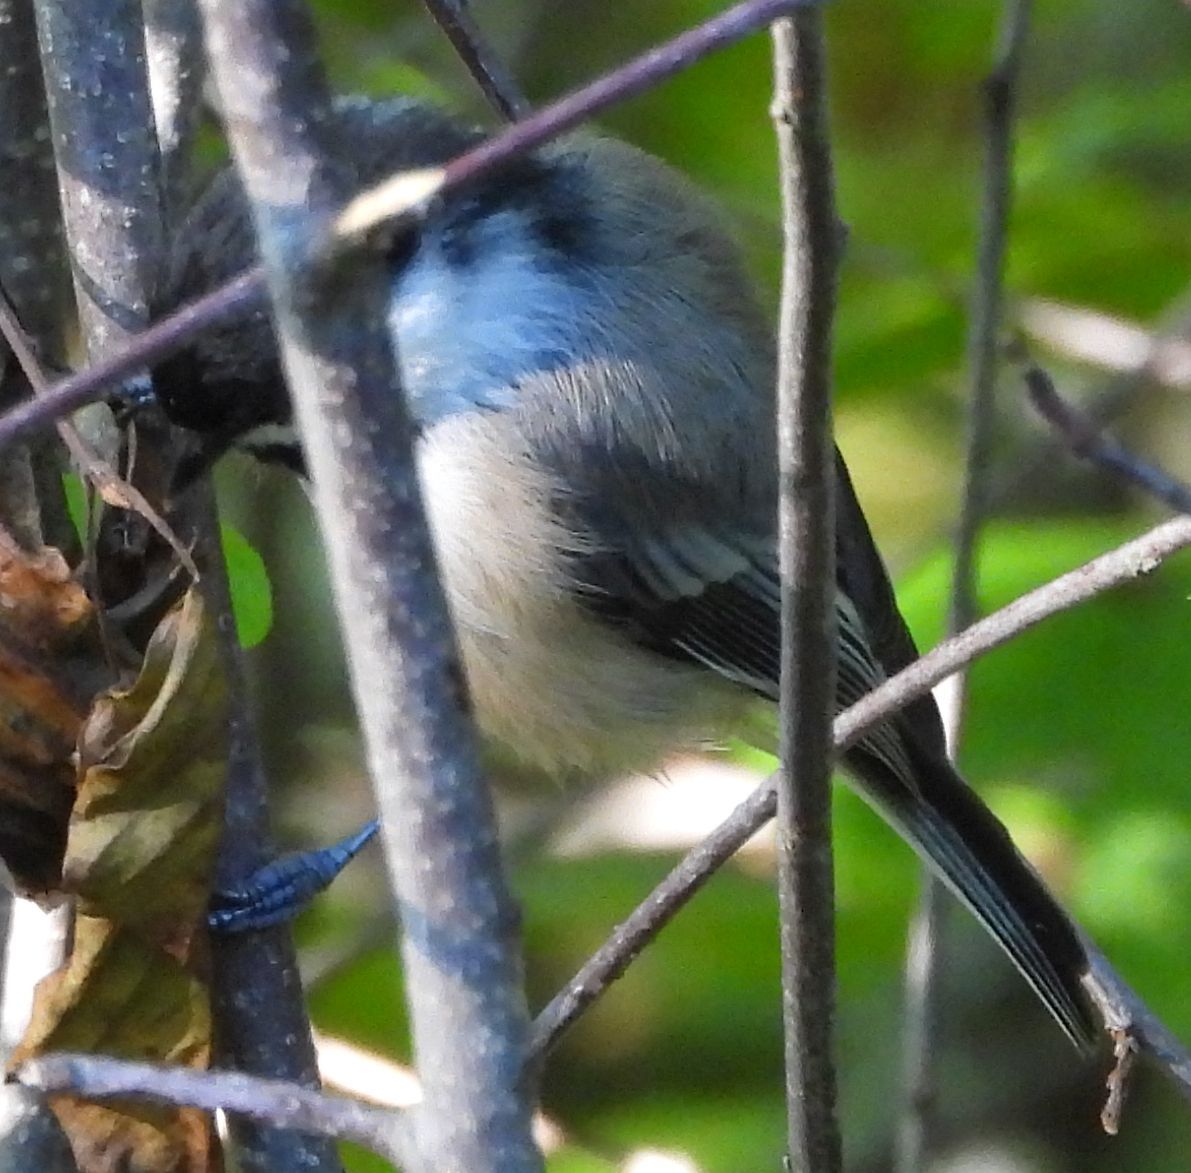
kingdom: Animalia
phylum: Chordata
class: Aves
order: Passeriformes
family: Paridae
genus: Poecile
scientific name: Poecile atricapillus
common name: Black-capped chickadee
